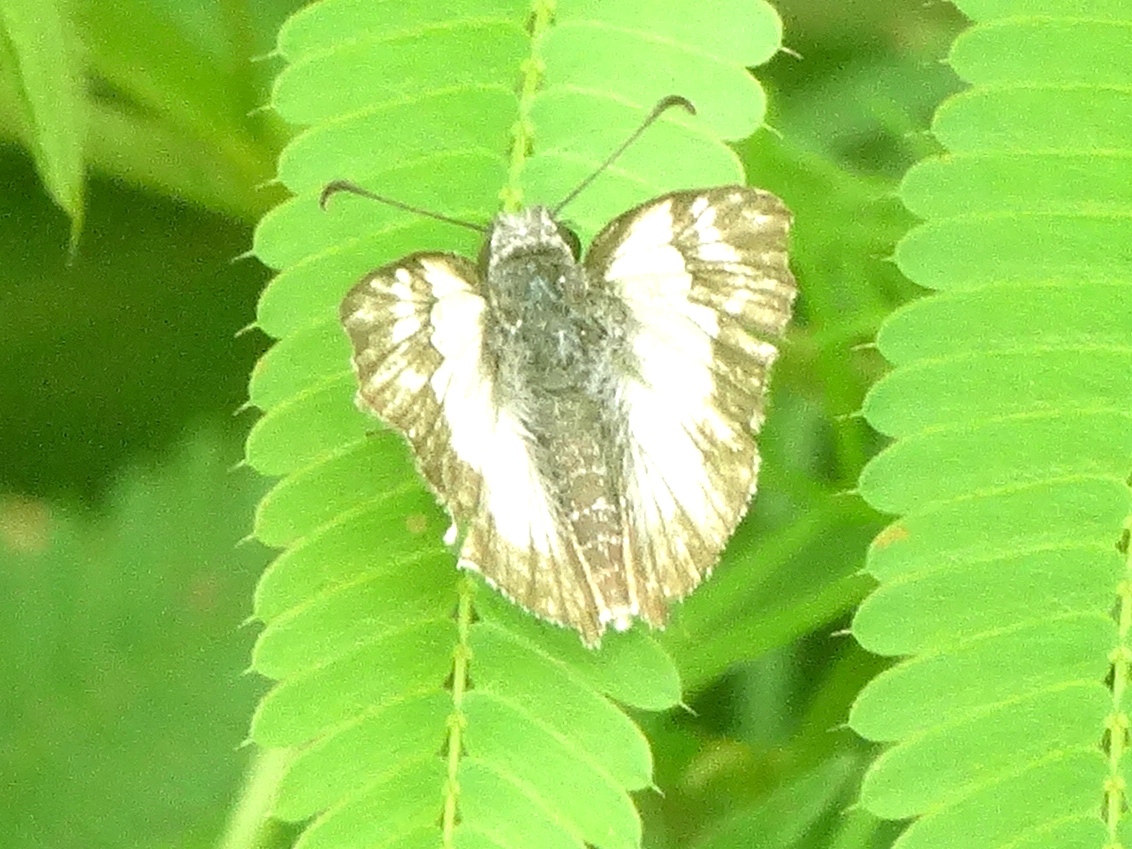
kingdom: Animalia
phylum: Arthropoda
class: Insecta
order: Lepidoptera
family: Hesperiidae
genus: Heliopetes
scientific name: Heliopetes laviana
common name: Laviana white-skipper
